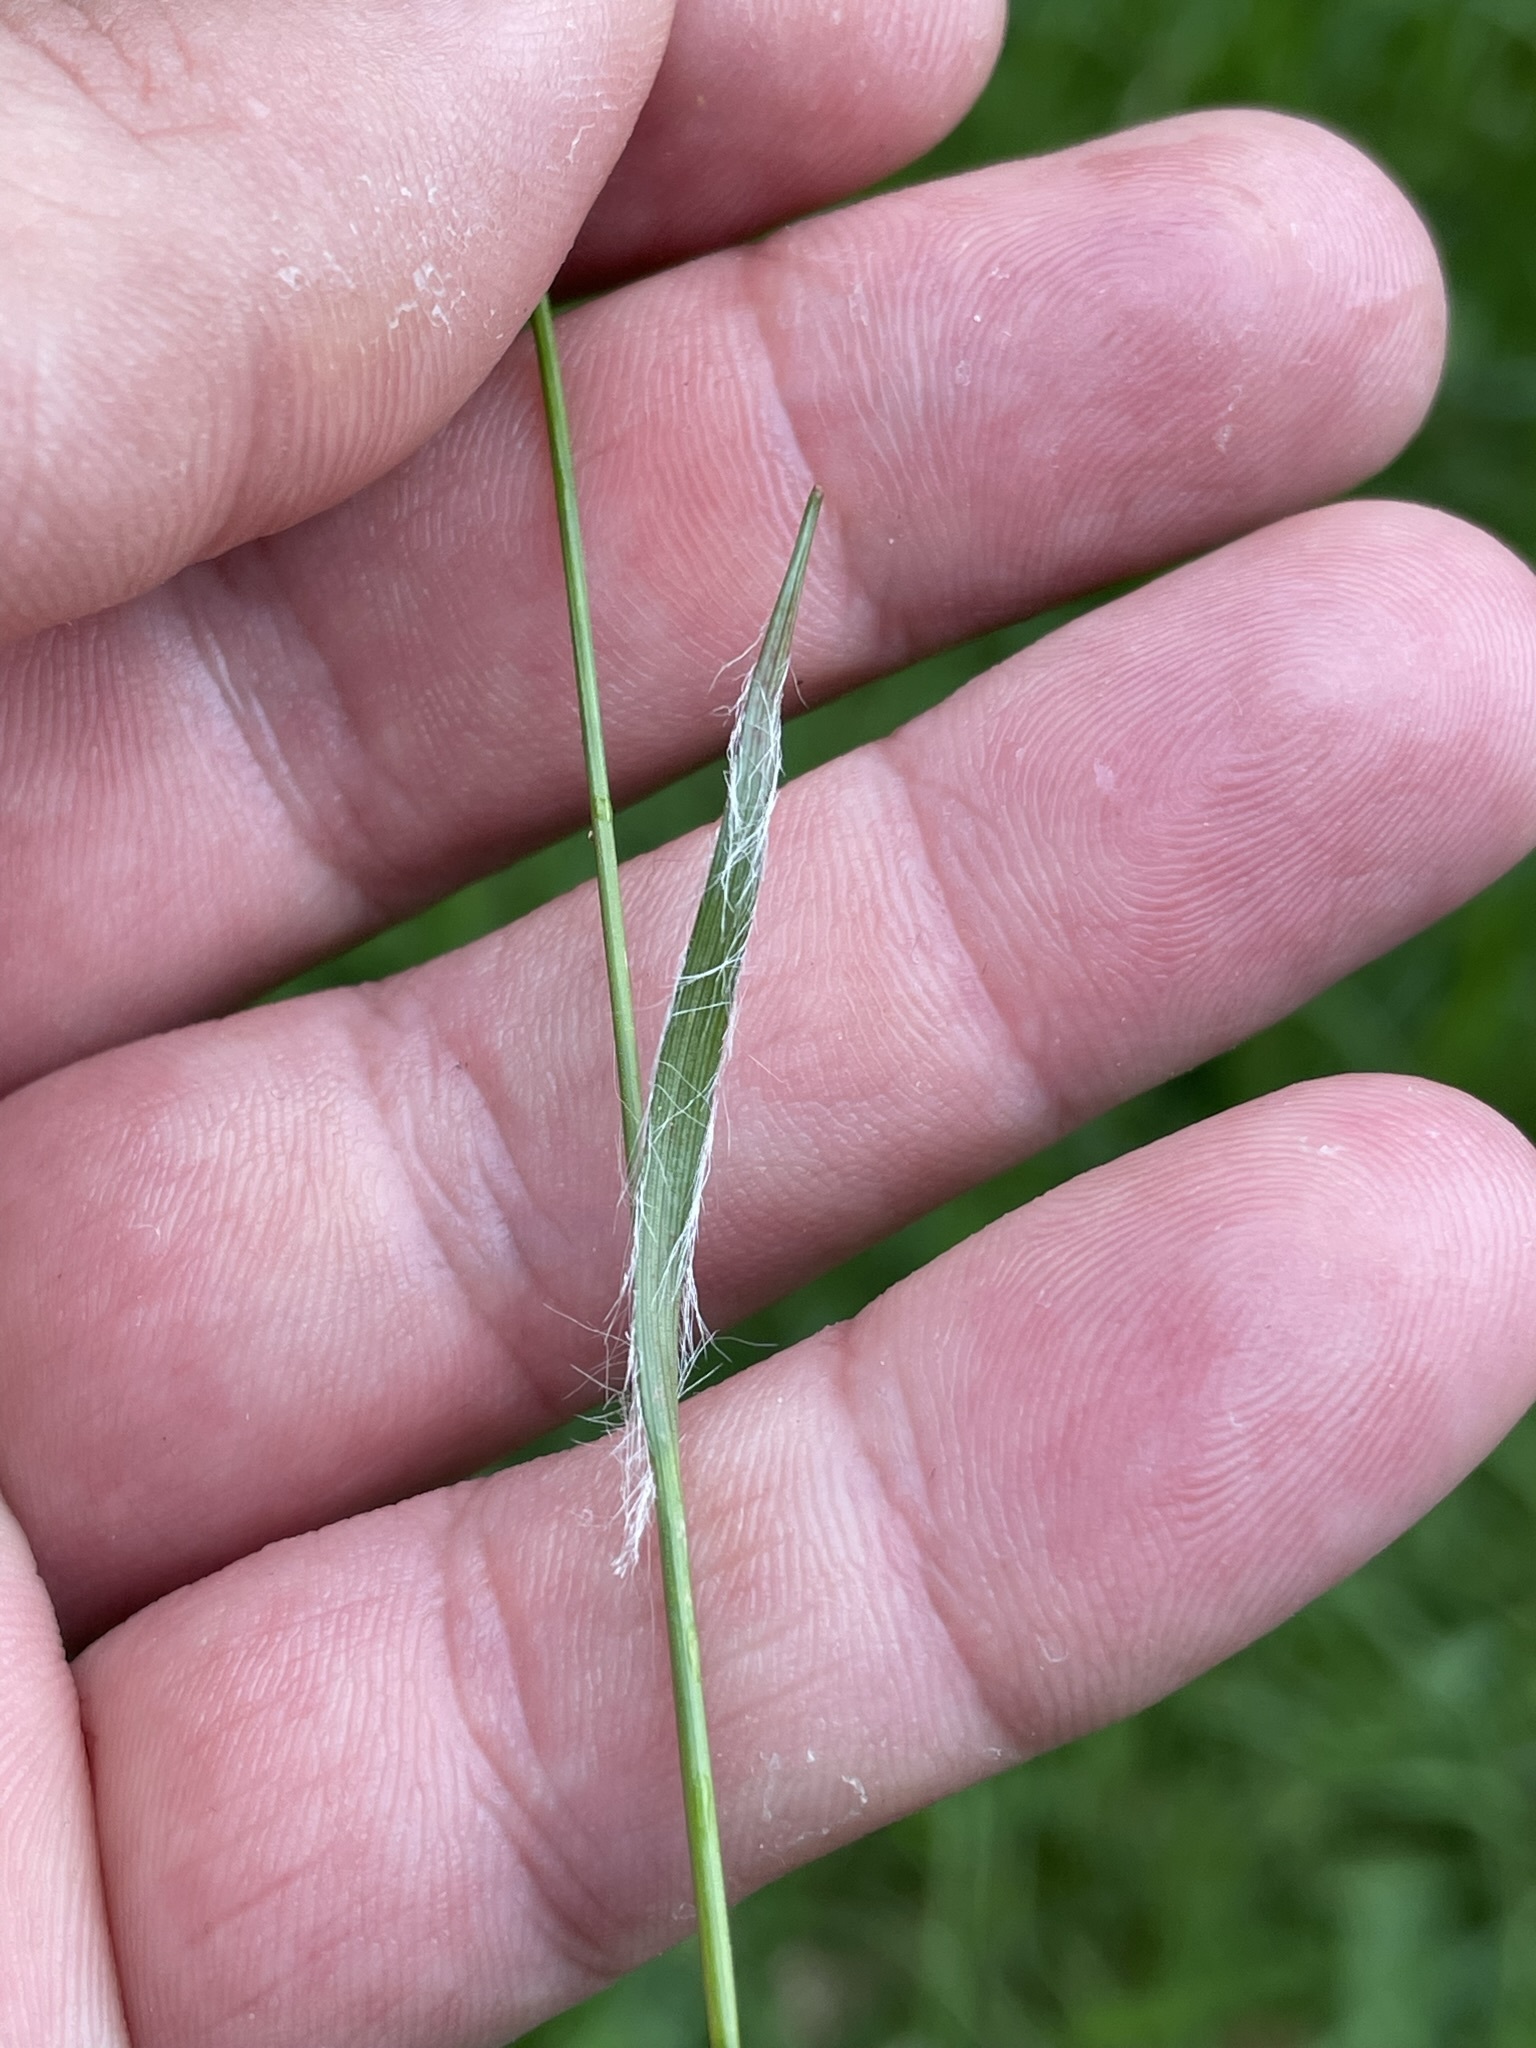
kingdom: Plantae
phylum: Tracheophyta
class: Liliopsida
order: Poales
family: Juncaceae
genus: Luzula
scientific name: Luzula campestris
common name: Field wood-rush
